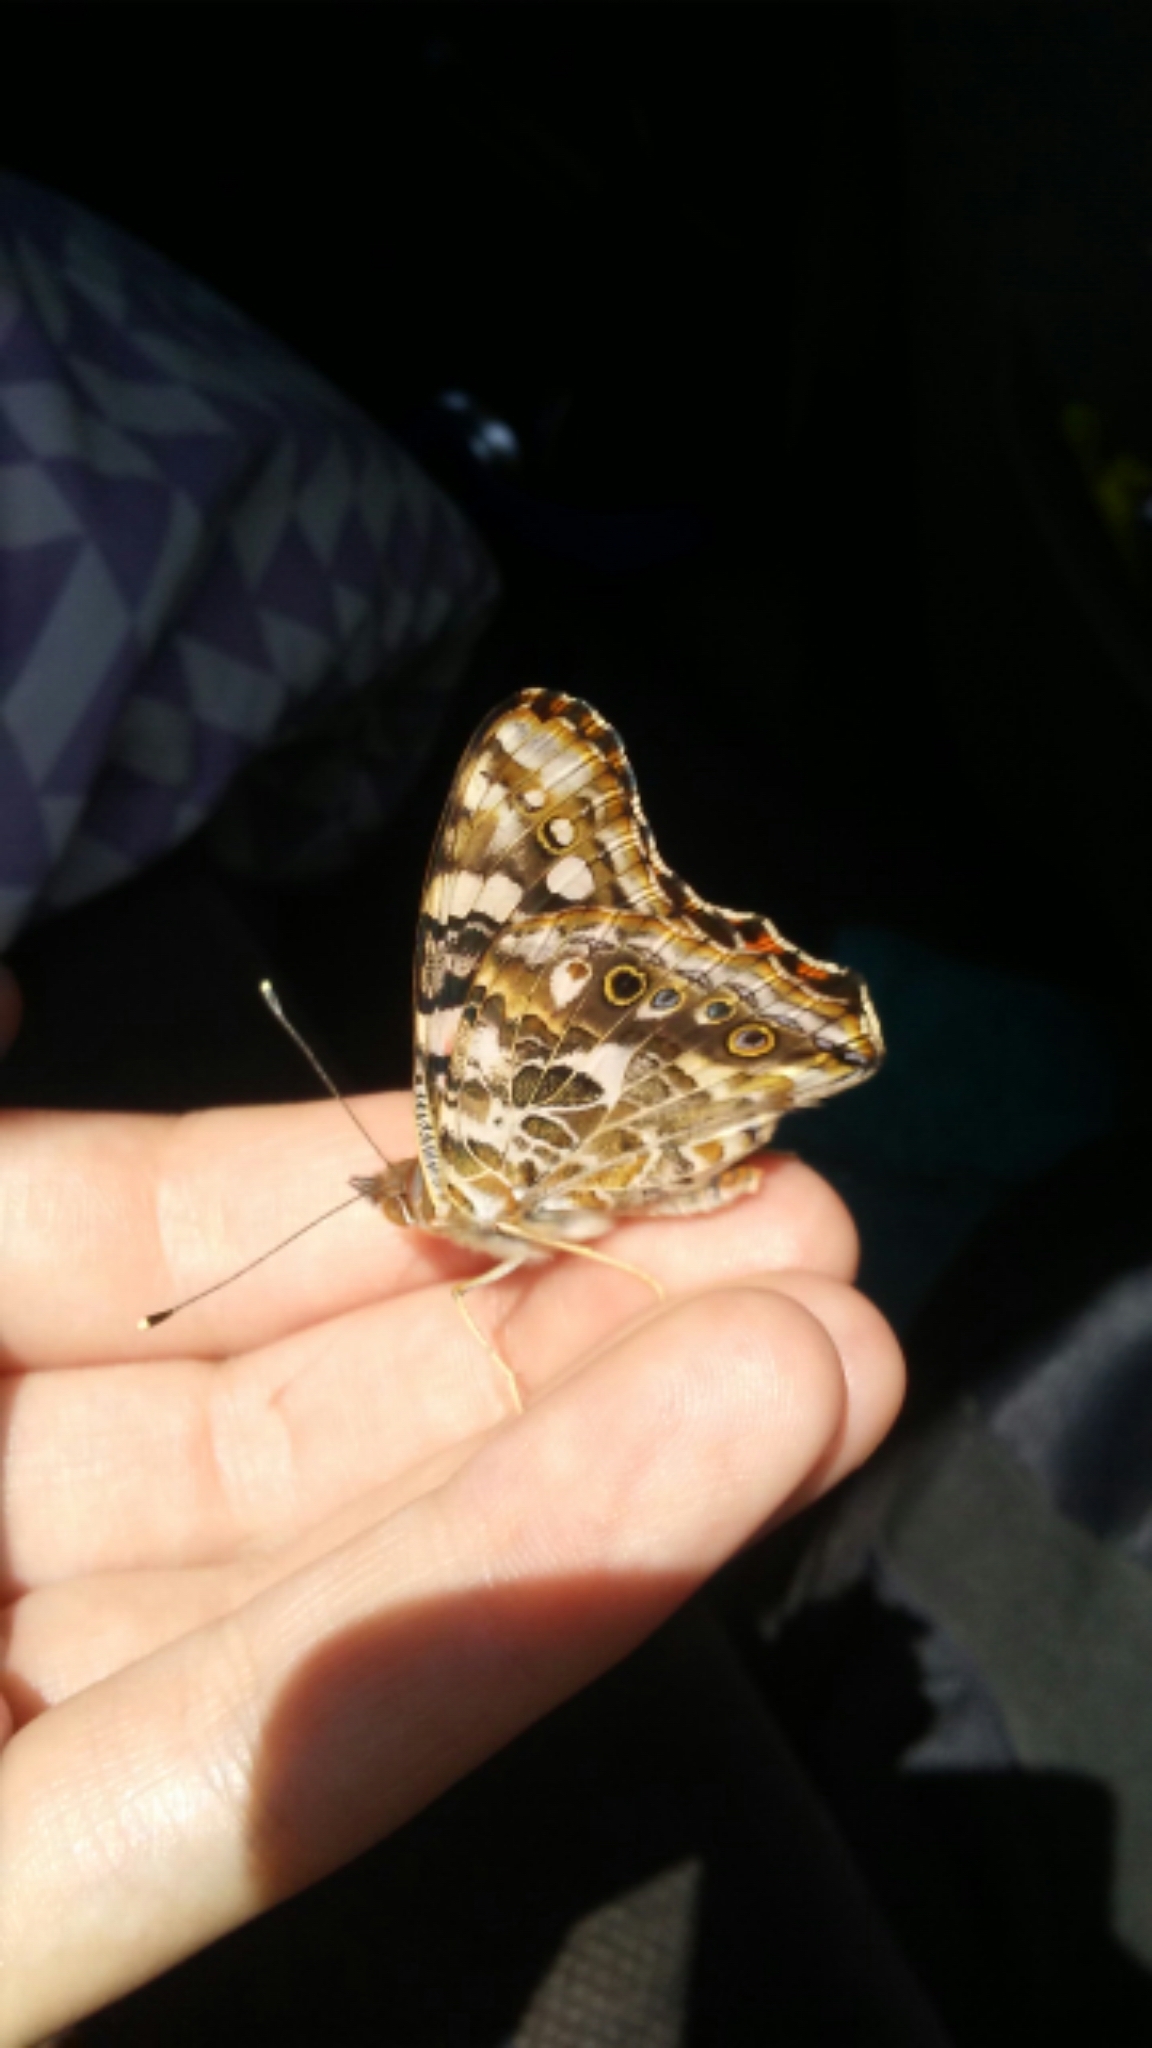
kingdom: Animalia
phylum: Arthropoda
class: Insecta
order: Lepidoptera
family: Nymphalidae
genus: Vanessa
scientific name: Vanessa cardui
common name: Painted lady
